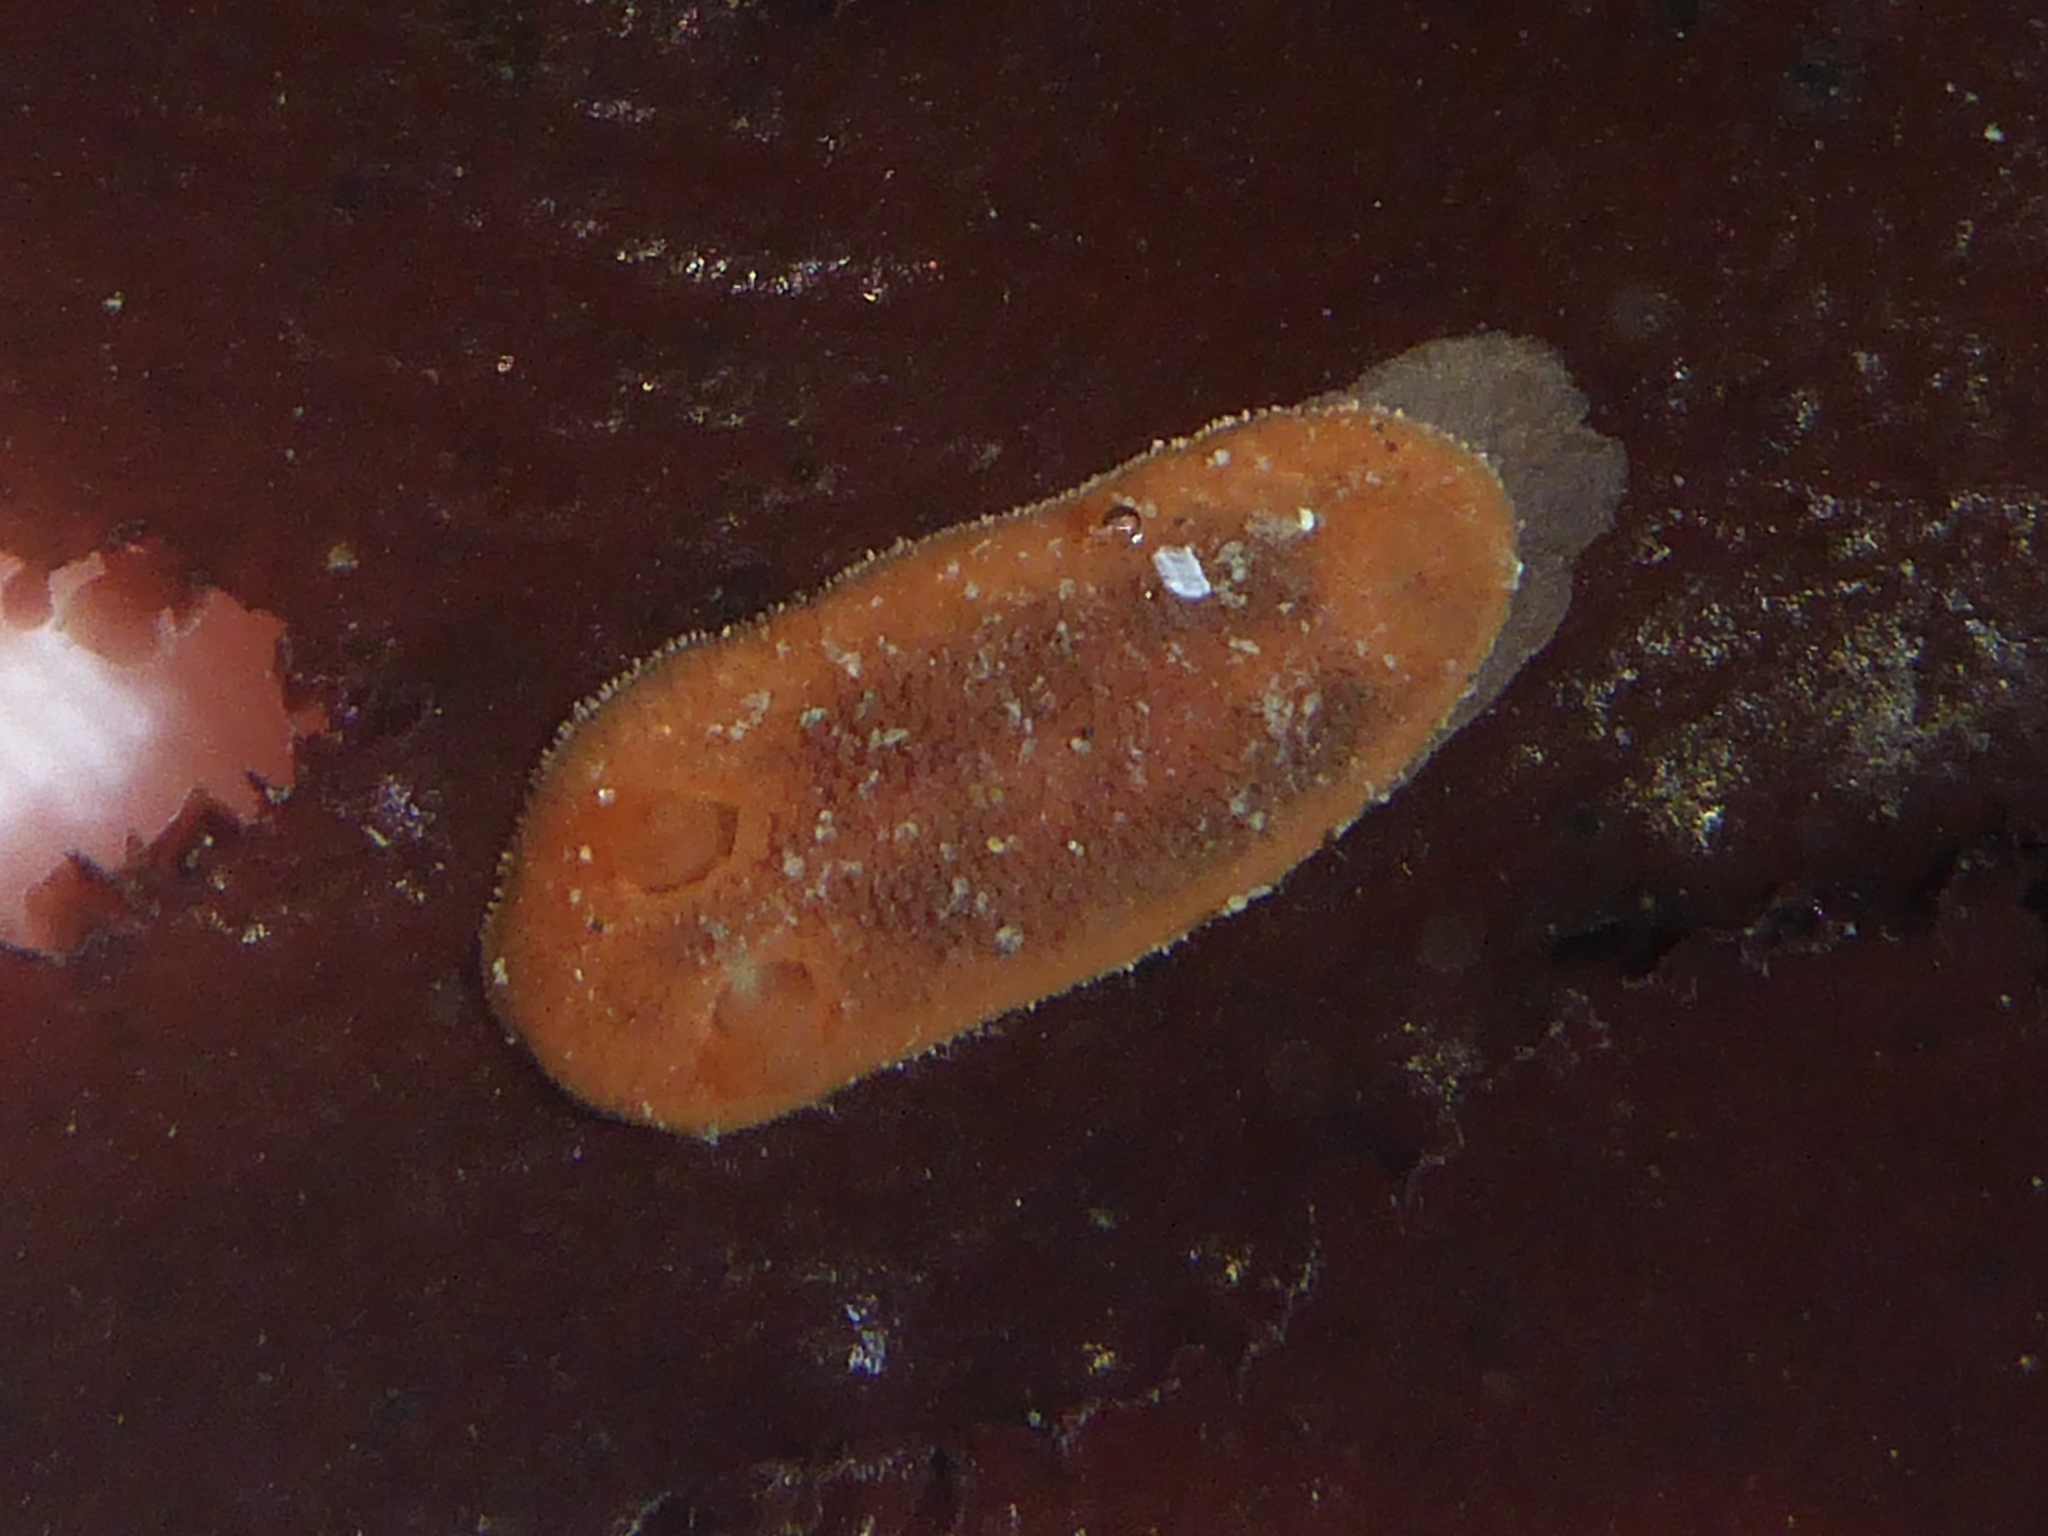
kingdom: Animalia
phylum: Mollusca
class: Gastropoda
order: Nudibranchia
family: Discodorididae
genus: Rostanga
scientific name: Rostanga pulchra
